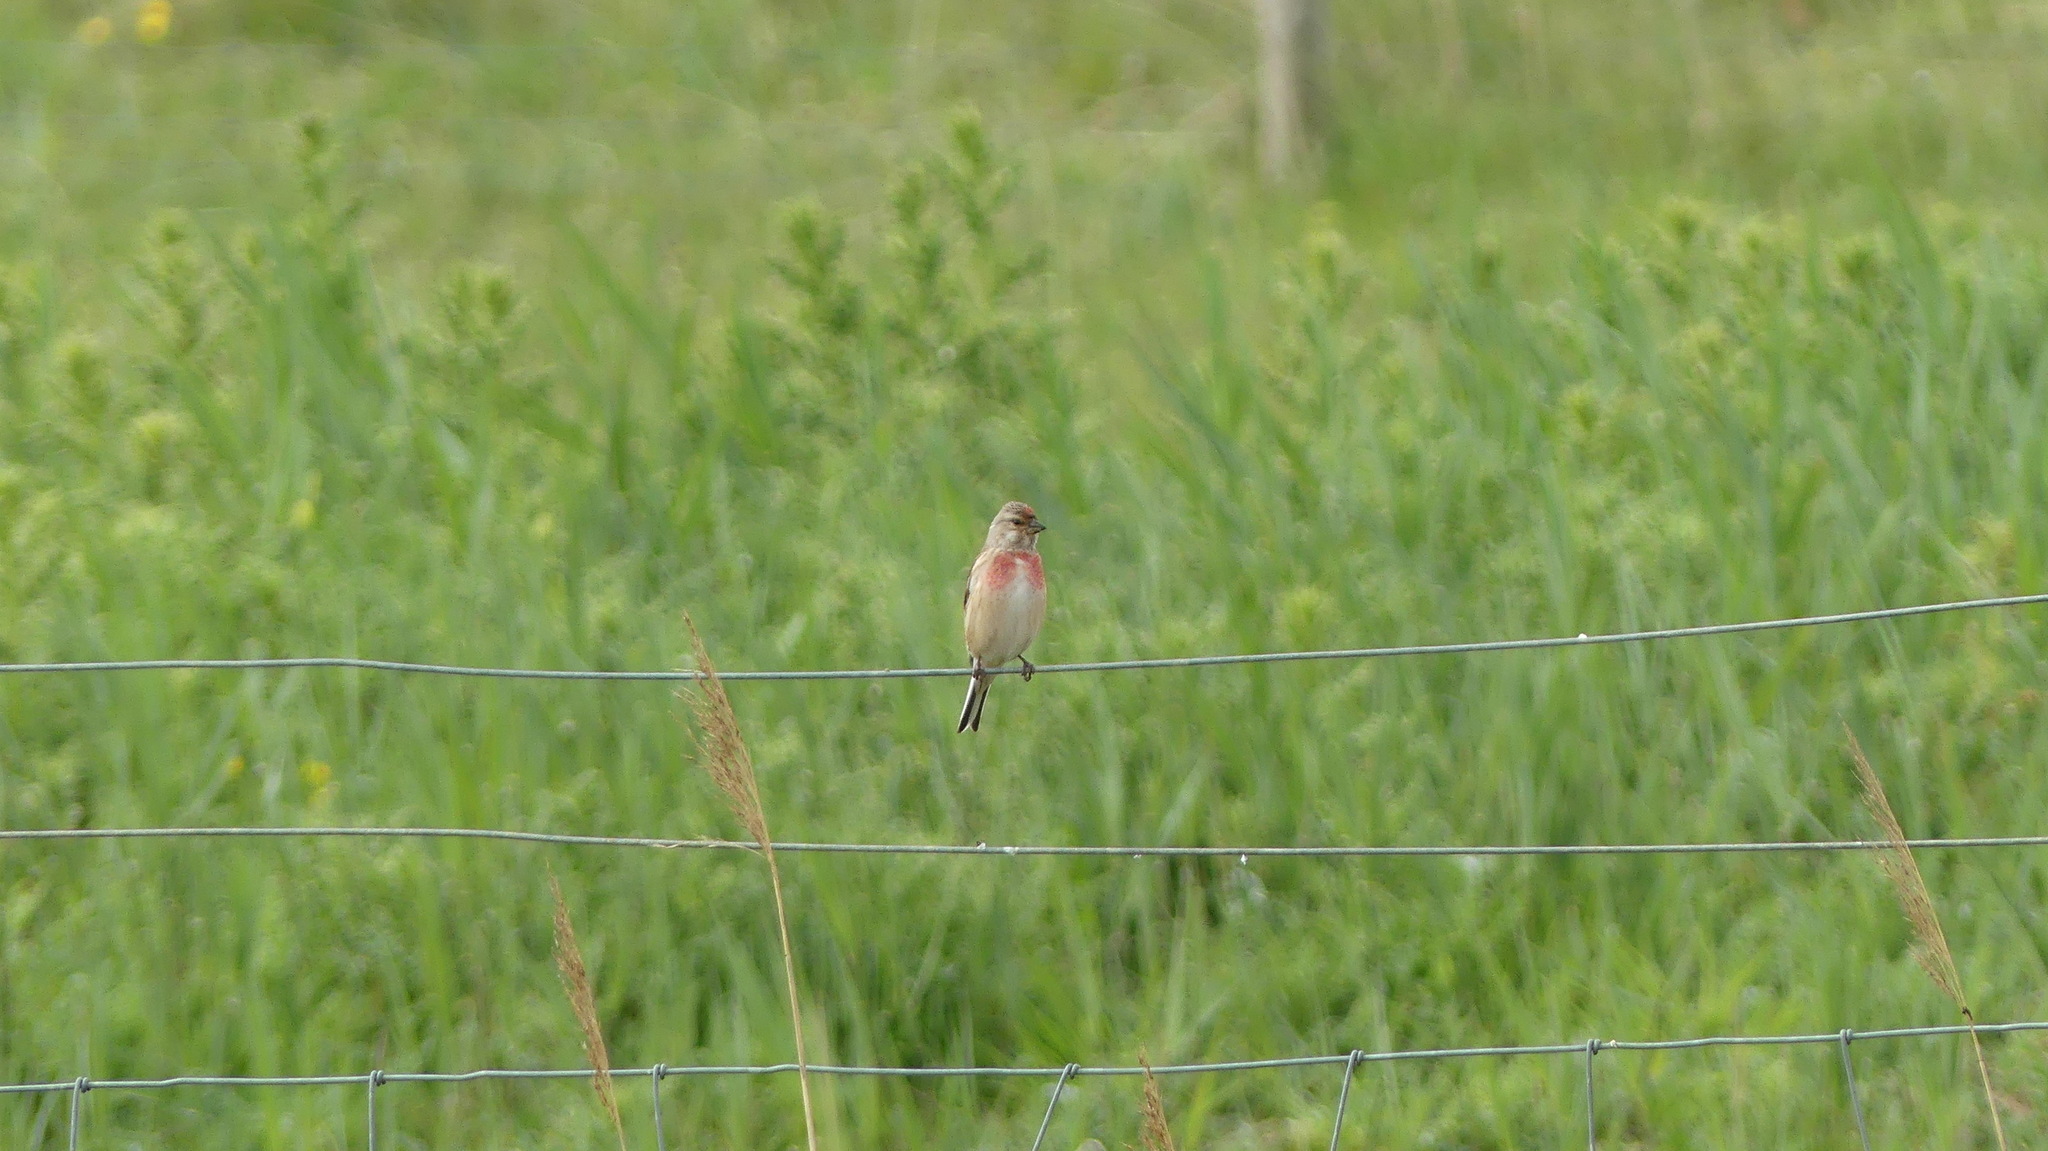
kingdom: Animalia
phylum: Chordata
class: Aves
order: Passeriformes
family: Fringillidae
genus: Linaria
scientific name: Linaria cannabina
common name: Common linnet
